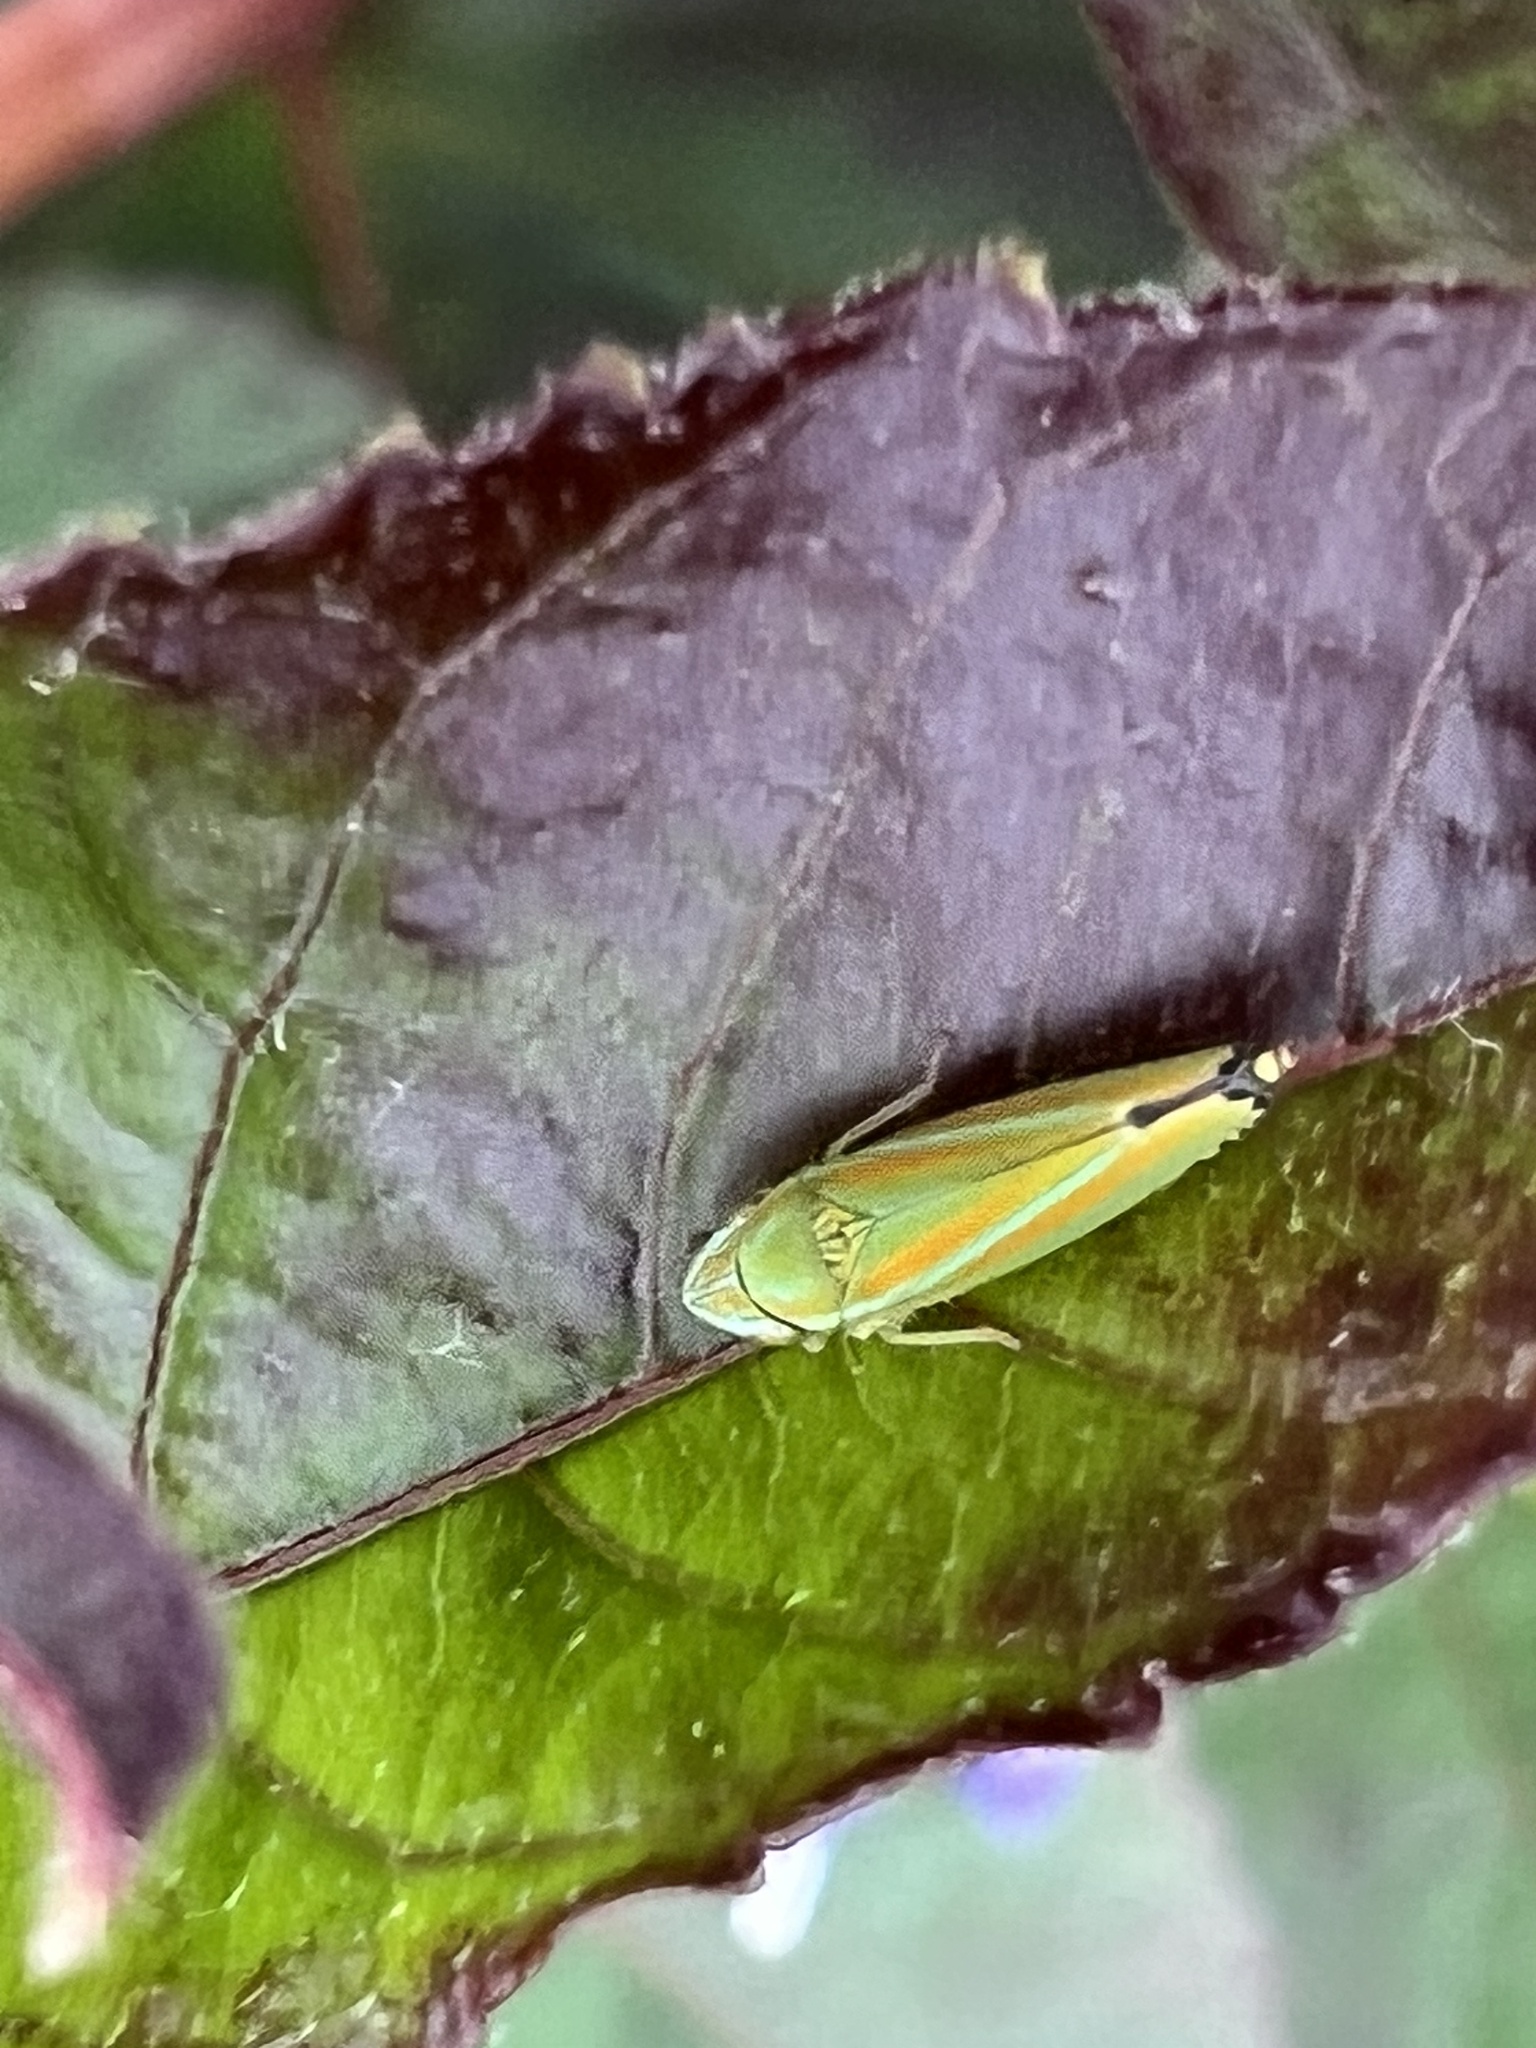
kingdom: Animalia
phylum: Arthropoda
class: Insecta
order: Hemiptera
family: Cicadellidae
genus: Graphocephala
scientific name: Graphocephala versuta
